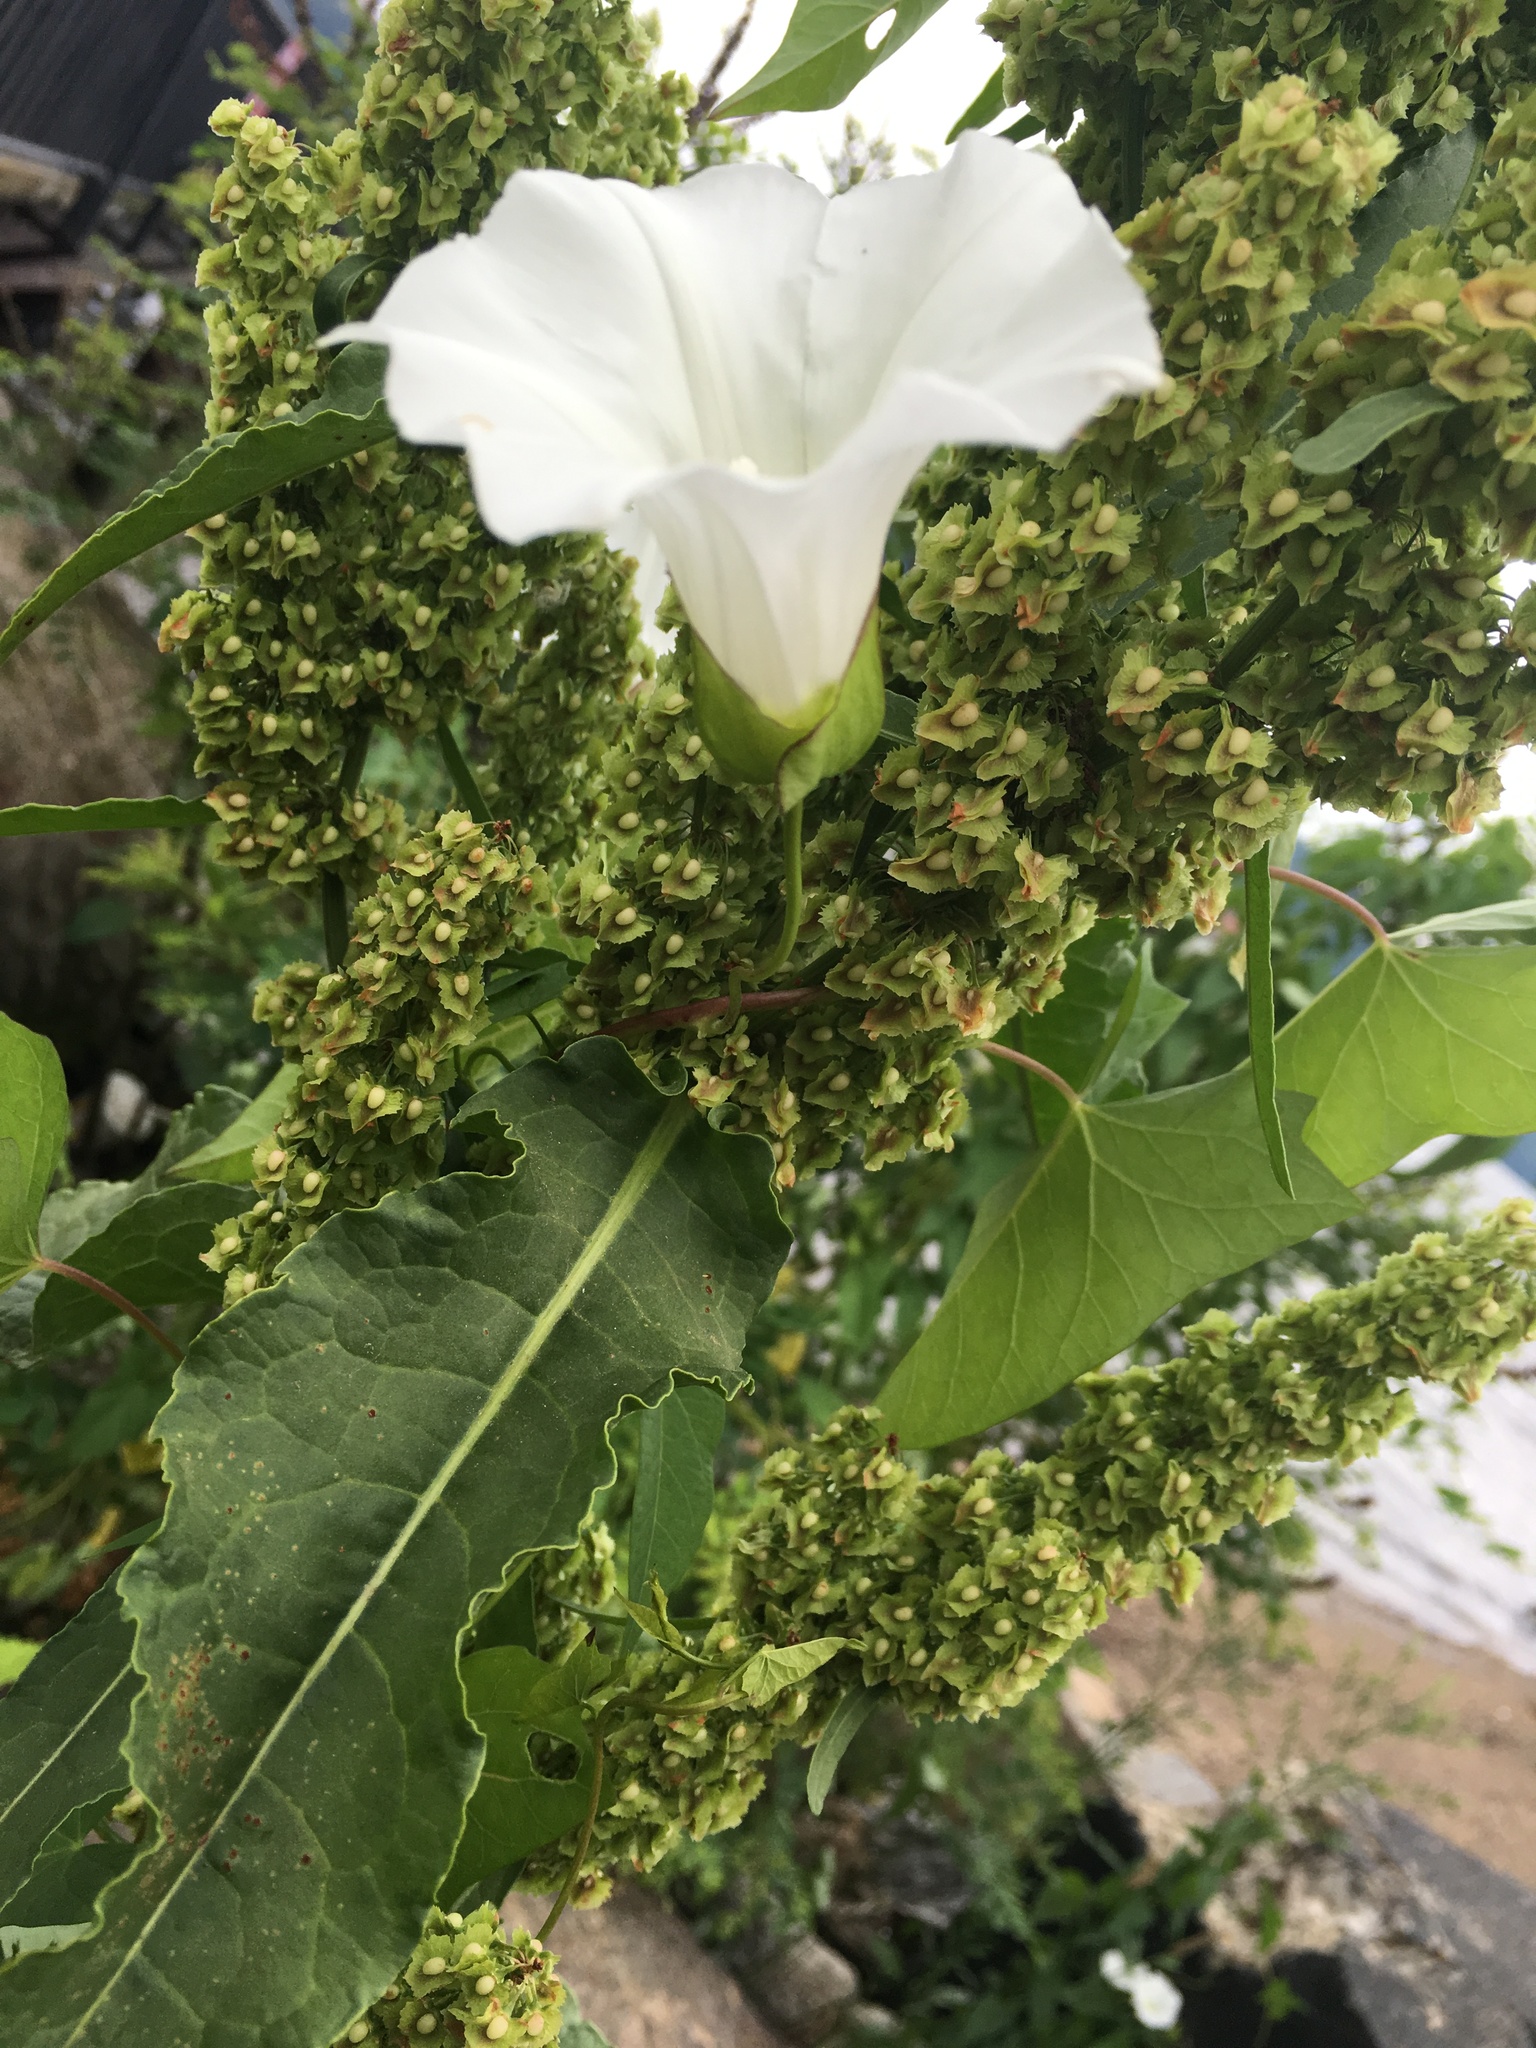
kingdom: Plantae
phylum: Tracheophyta
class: Magnoliopsida
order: Solanales
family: Convolvulaceae
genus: Calystegia
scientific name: Calystegia sepium
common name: Hedge bindweed
